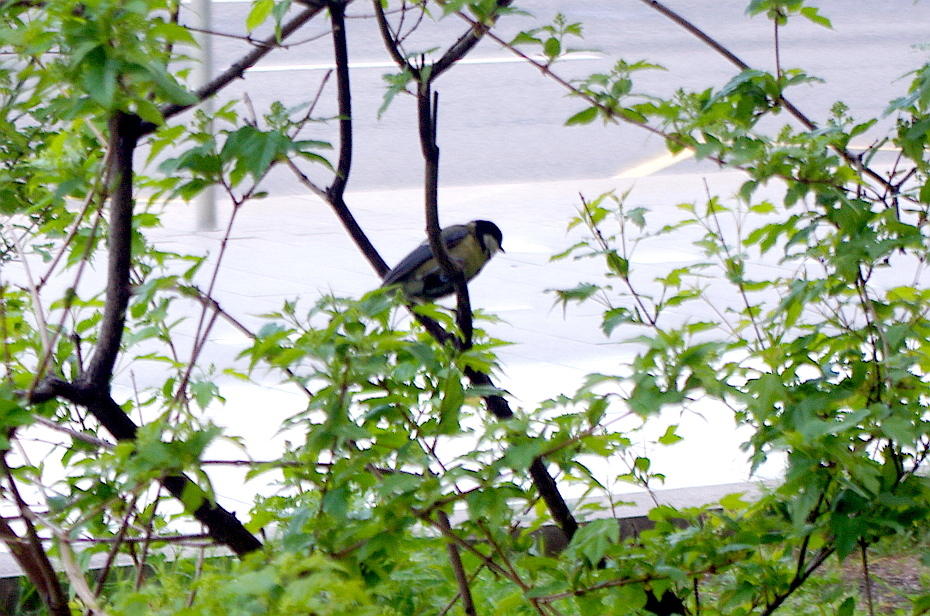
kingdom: Animalia
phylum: Chordata
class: Aves
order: Passeriformes
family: Paridae
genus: Parus
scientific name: Parus major
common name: Great tit
